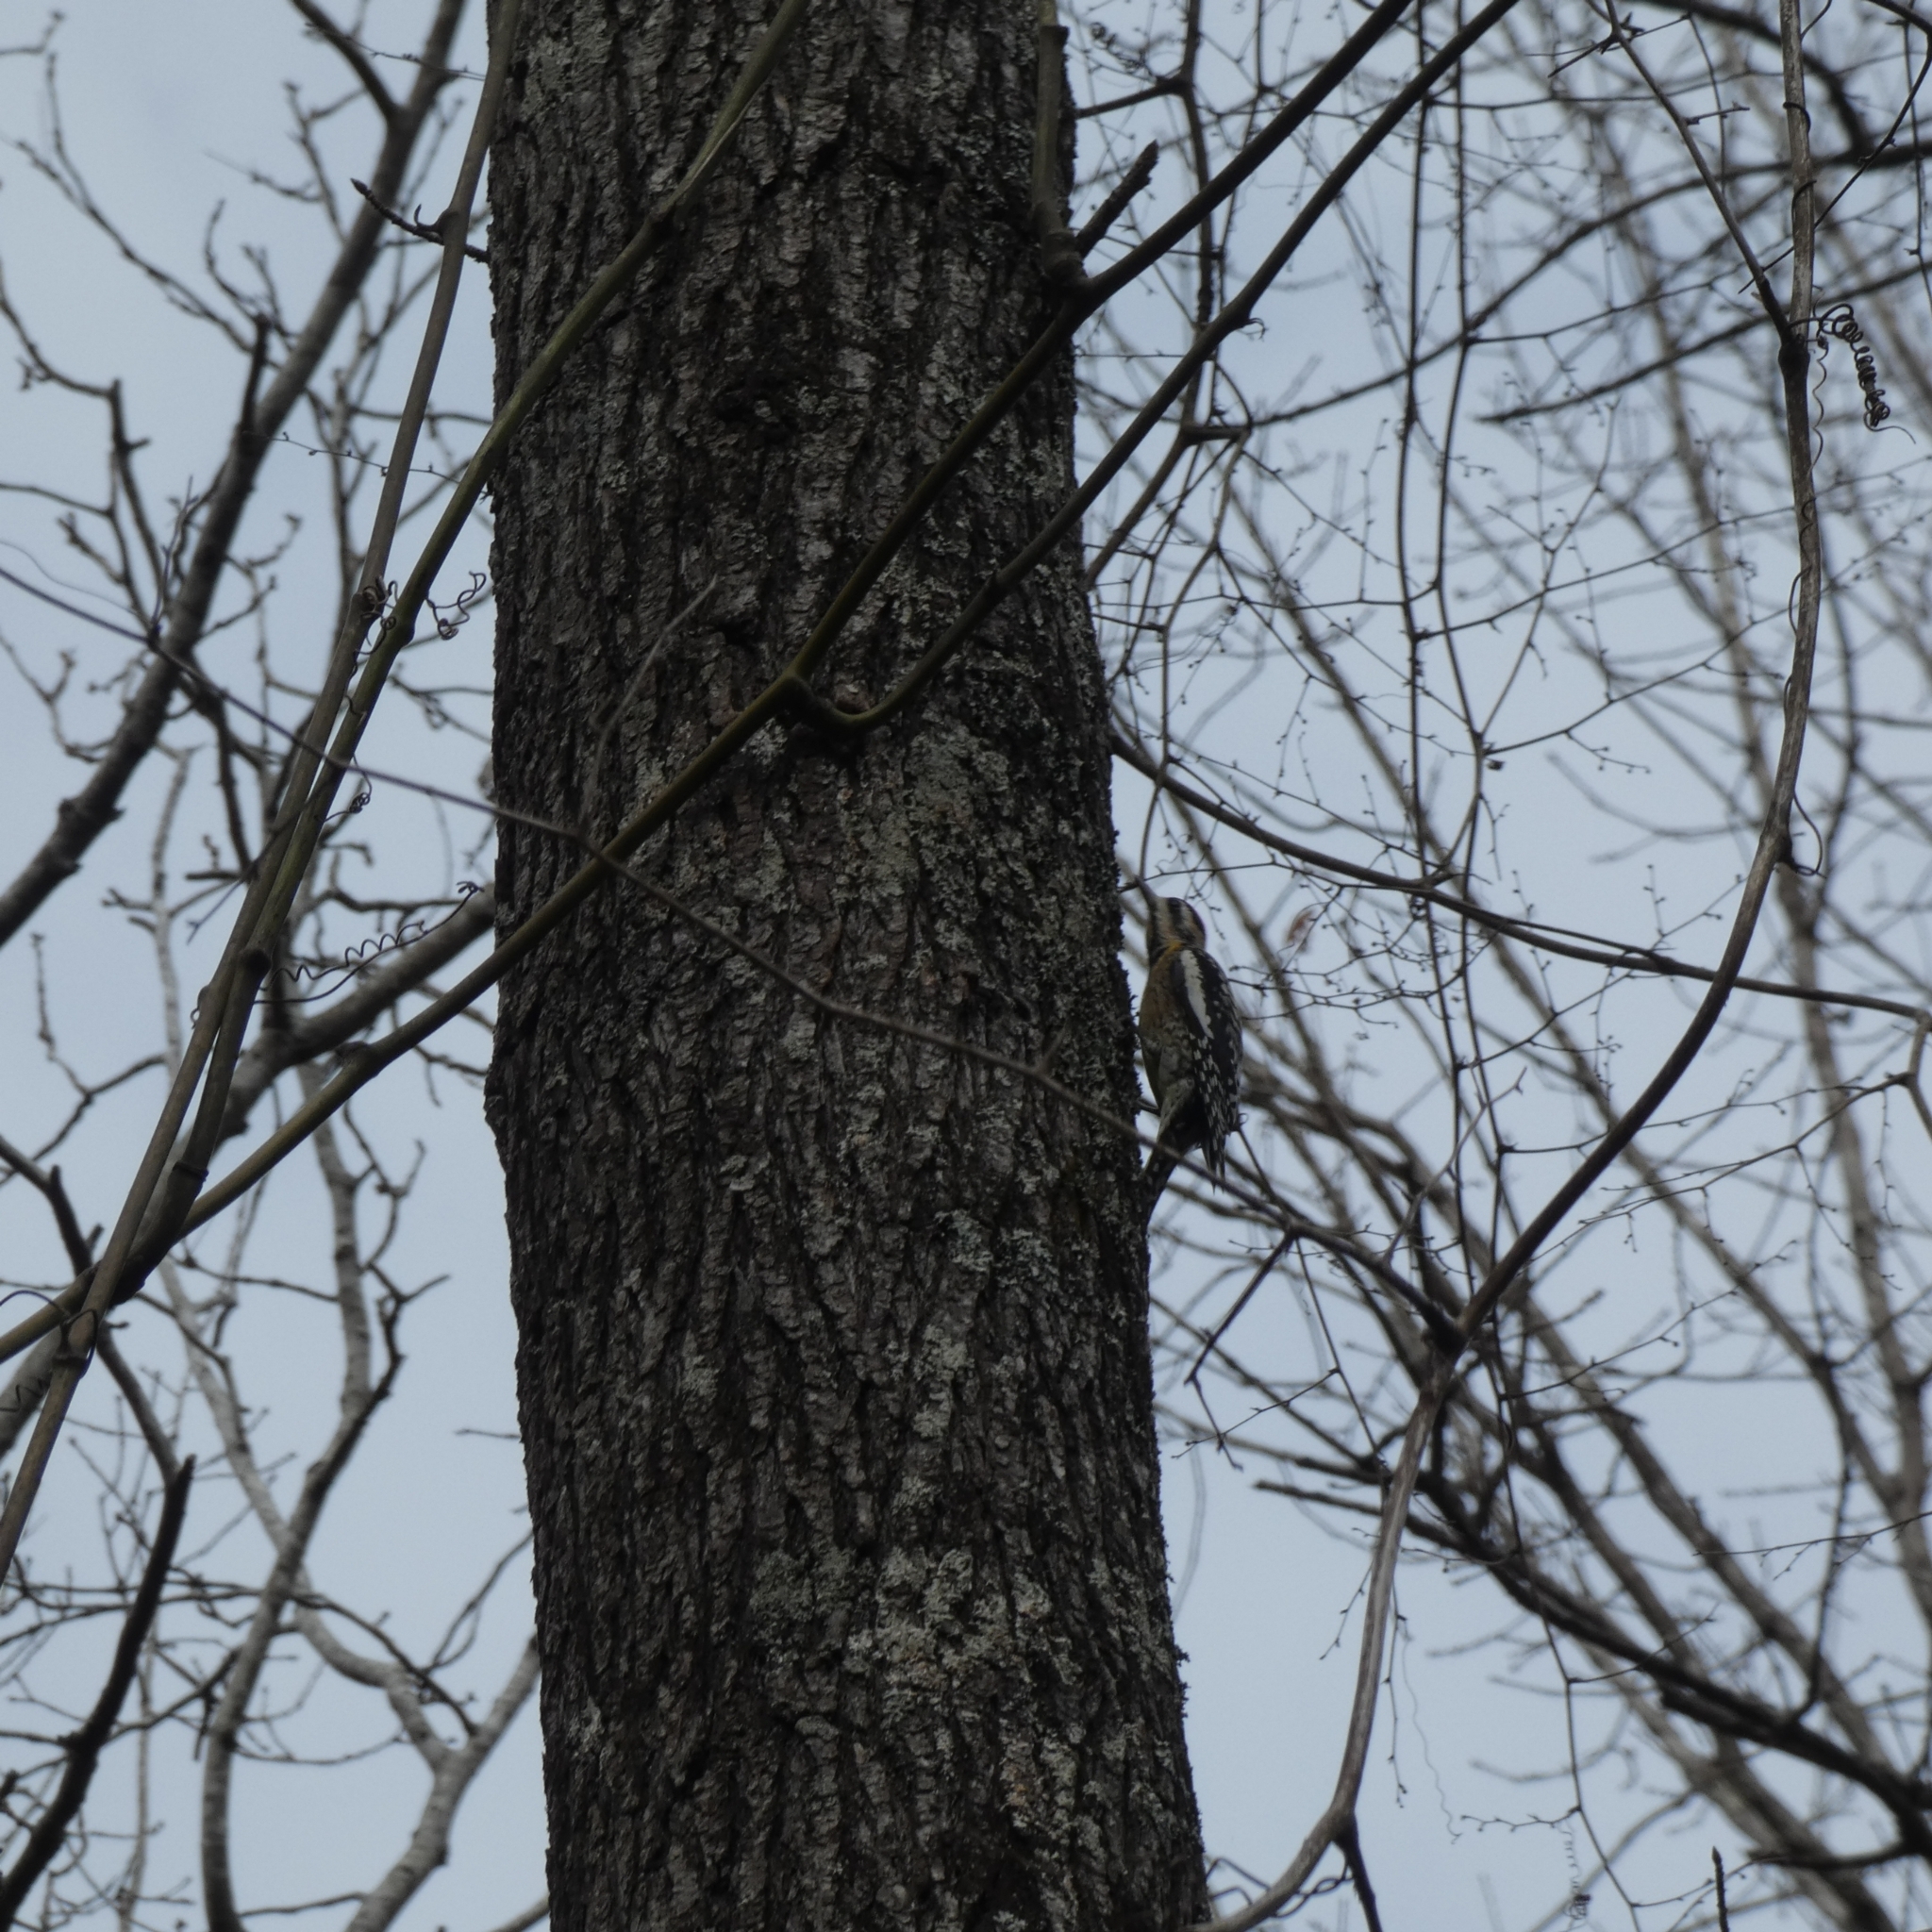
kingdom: Animalia
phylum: Chordata
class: Aves
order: Piciformes
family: Picidae
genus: Sphyrapicus
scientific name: Sphyrapicus varius
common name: Yellow-bellied sapsucker
